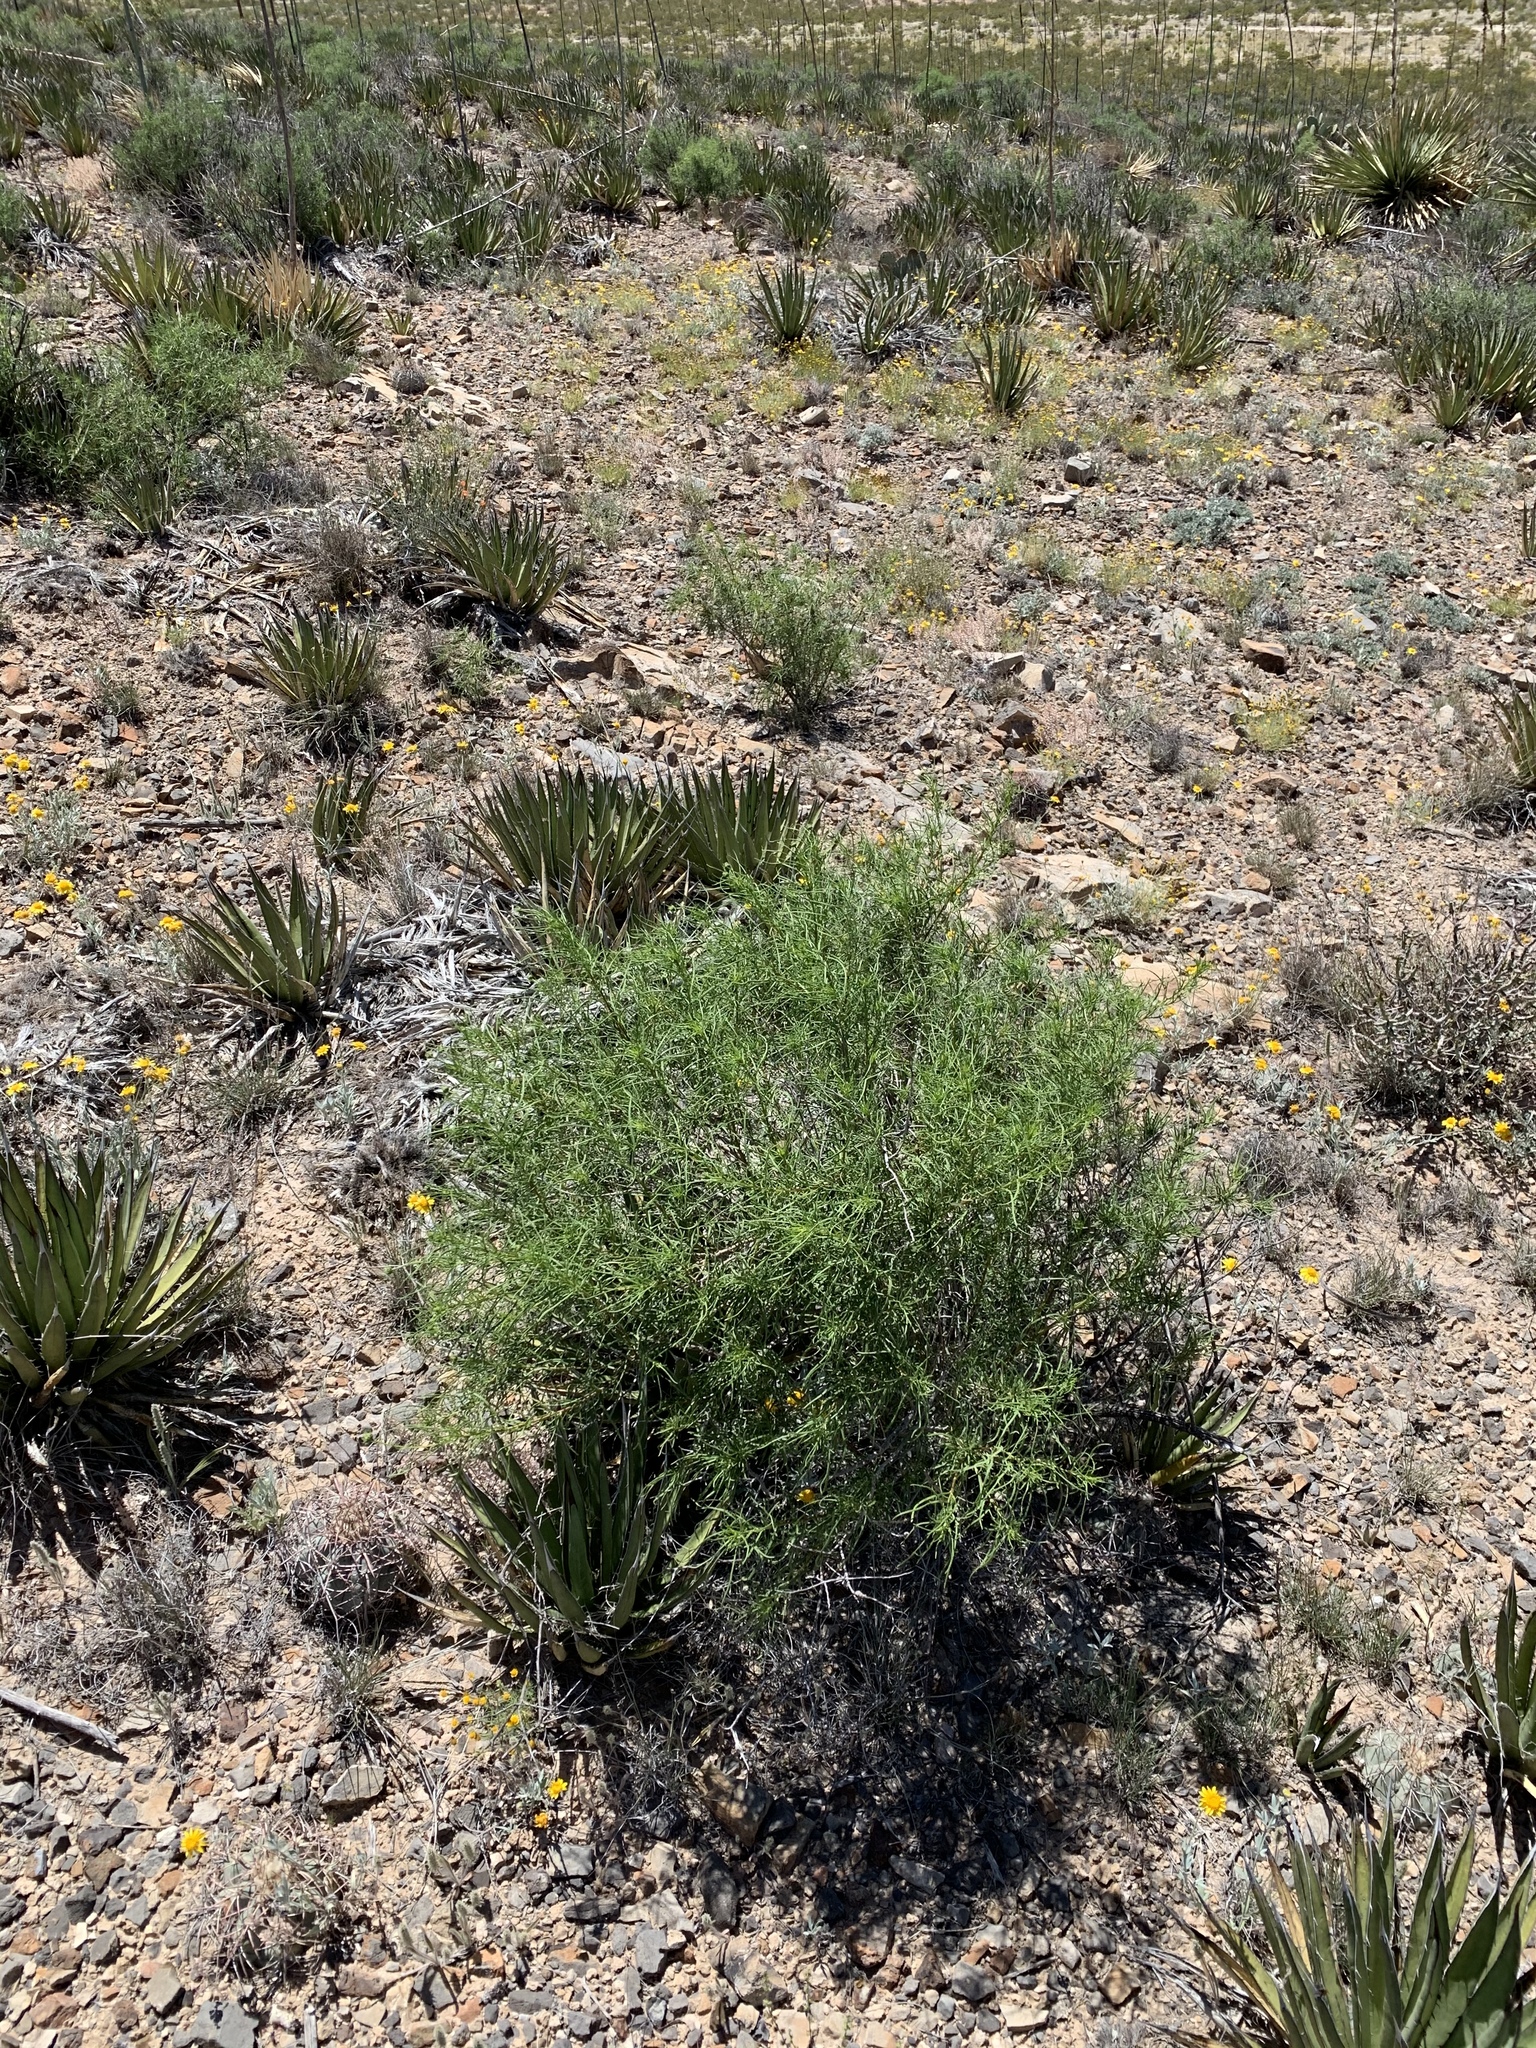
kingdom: Plantae
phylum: Tracheophyta
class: Magnoliopsida
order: Asterales
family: Asteraceae
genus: Sidneya
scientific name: Sidneya tenuifolia
